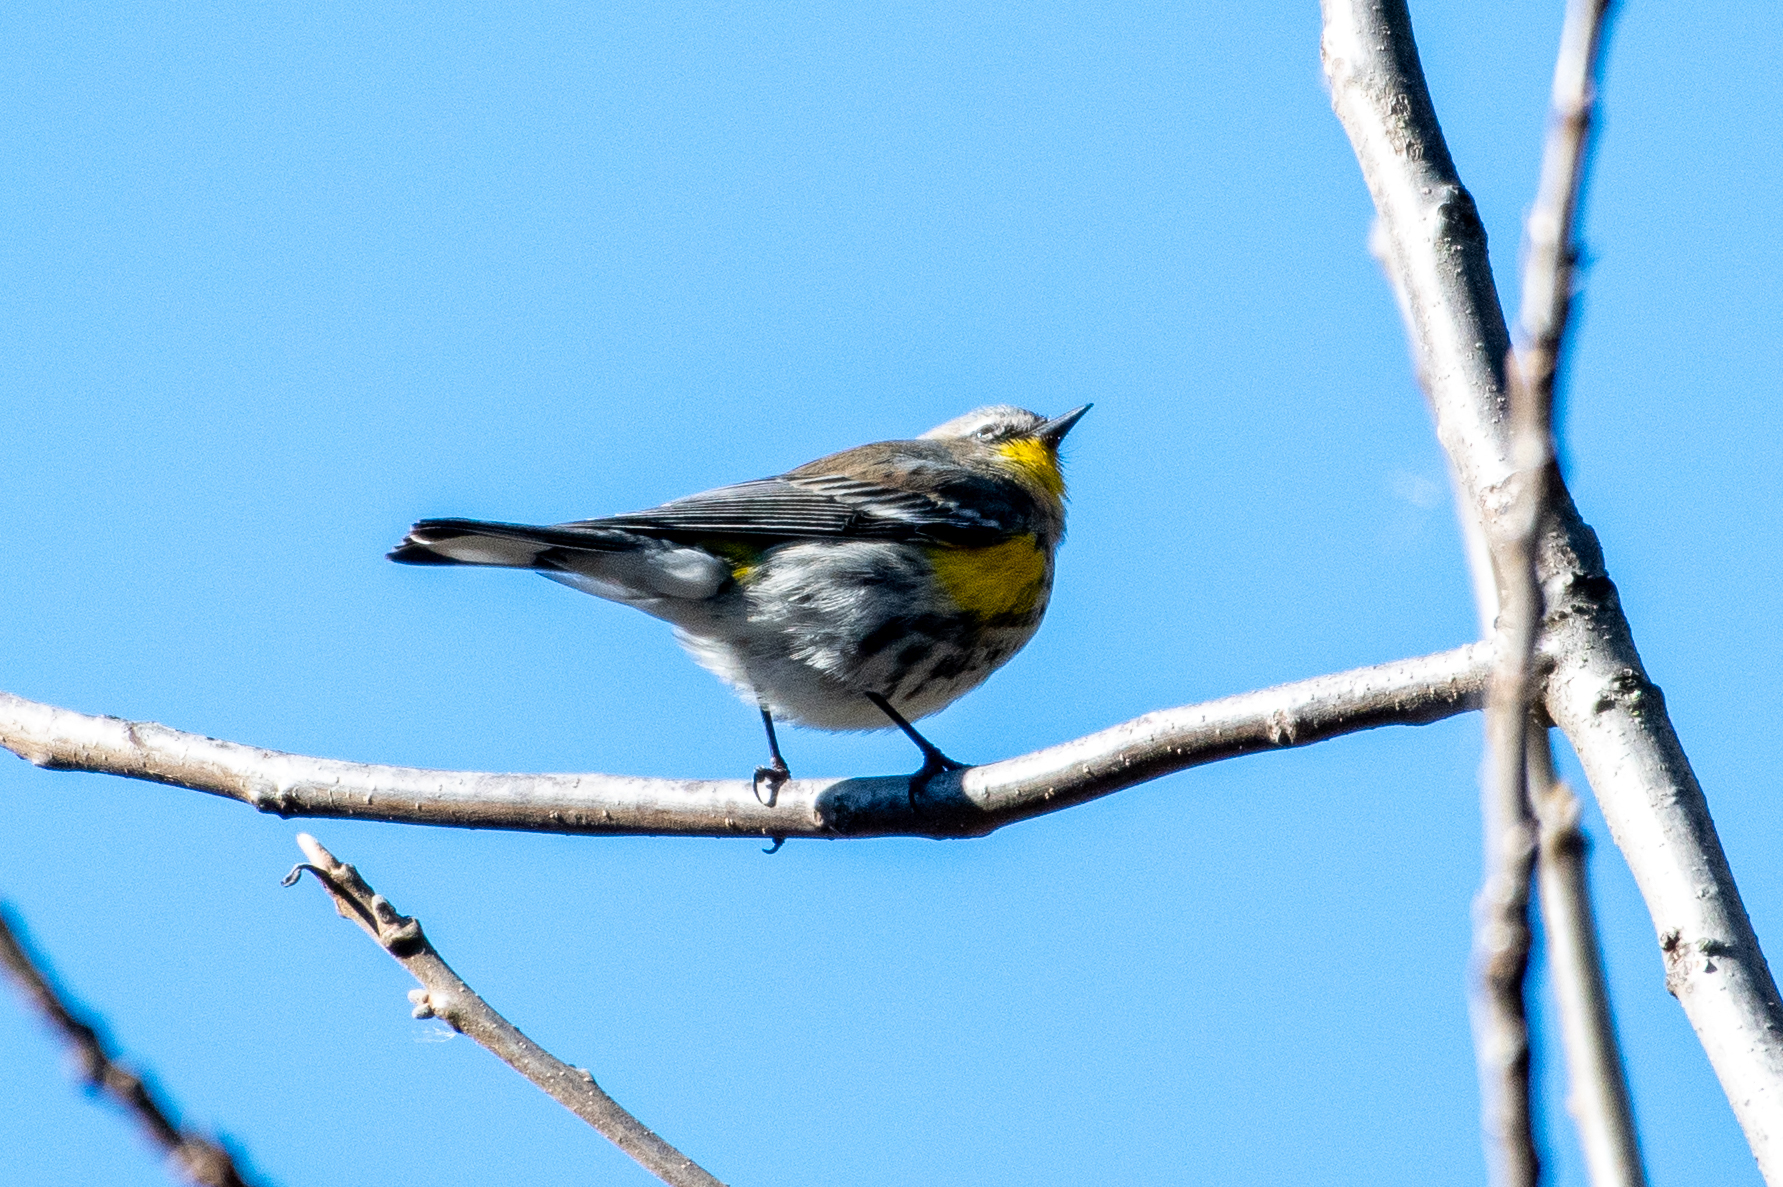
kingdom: Animalia
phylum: Chordata
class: Aves
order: Passeriformes
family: Parulidae
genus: Setophaga
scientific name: Setophaga coronata
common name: Myrtle warbler
